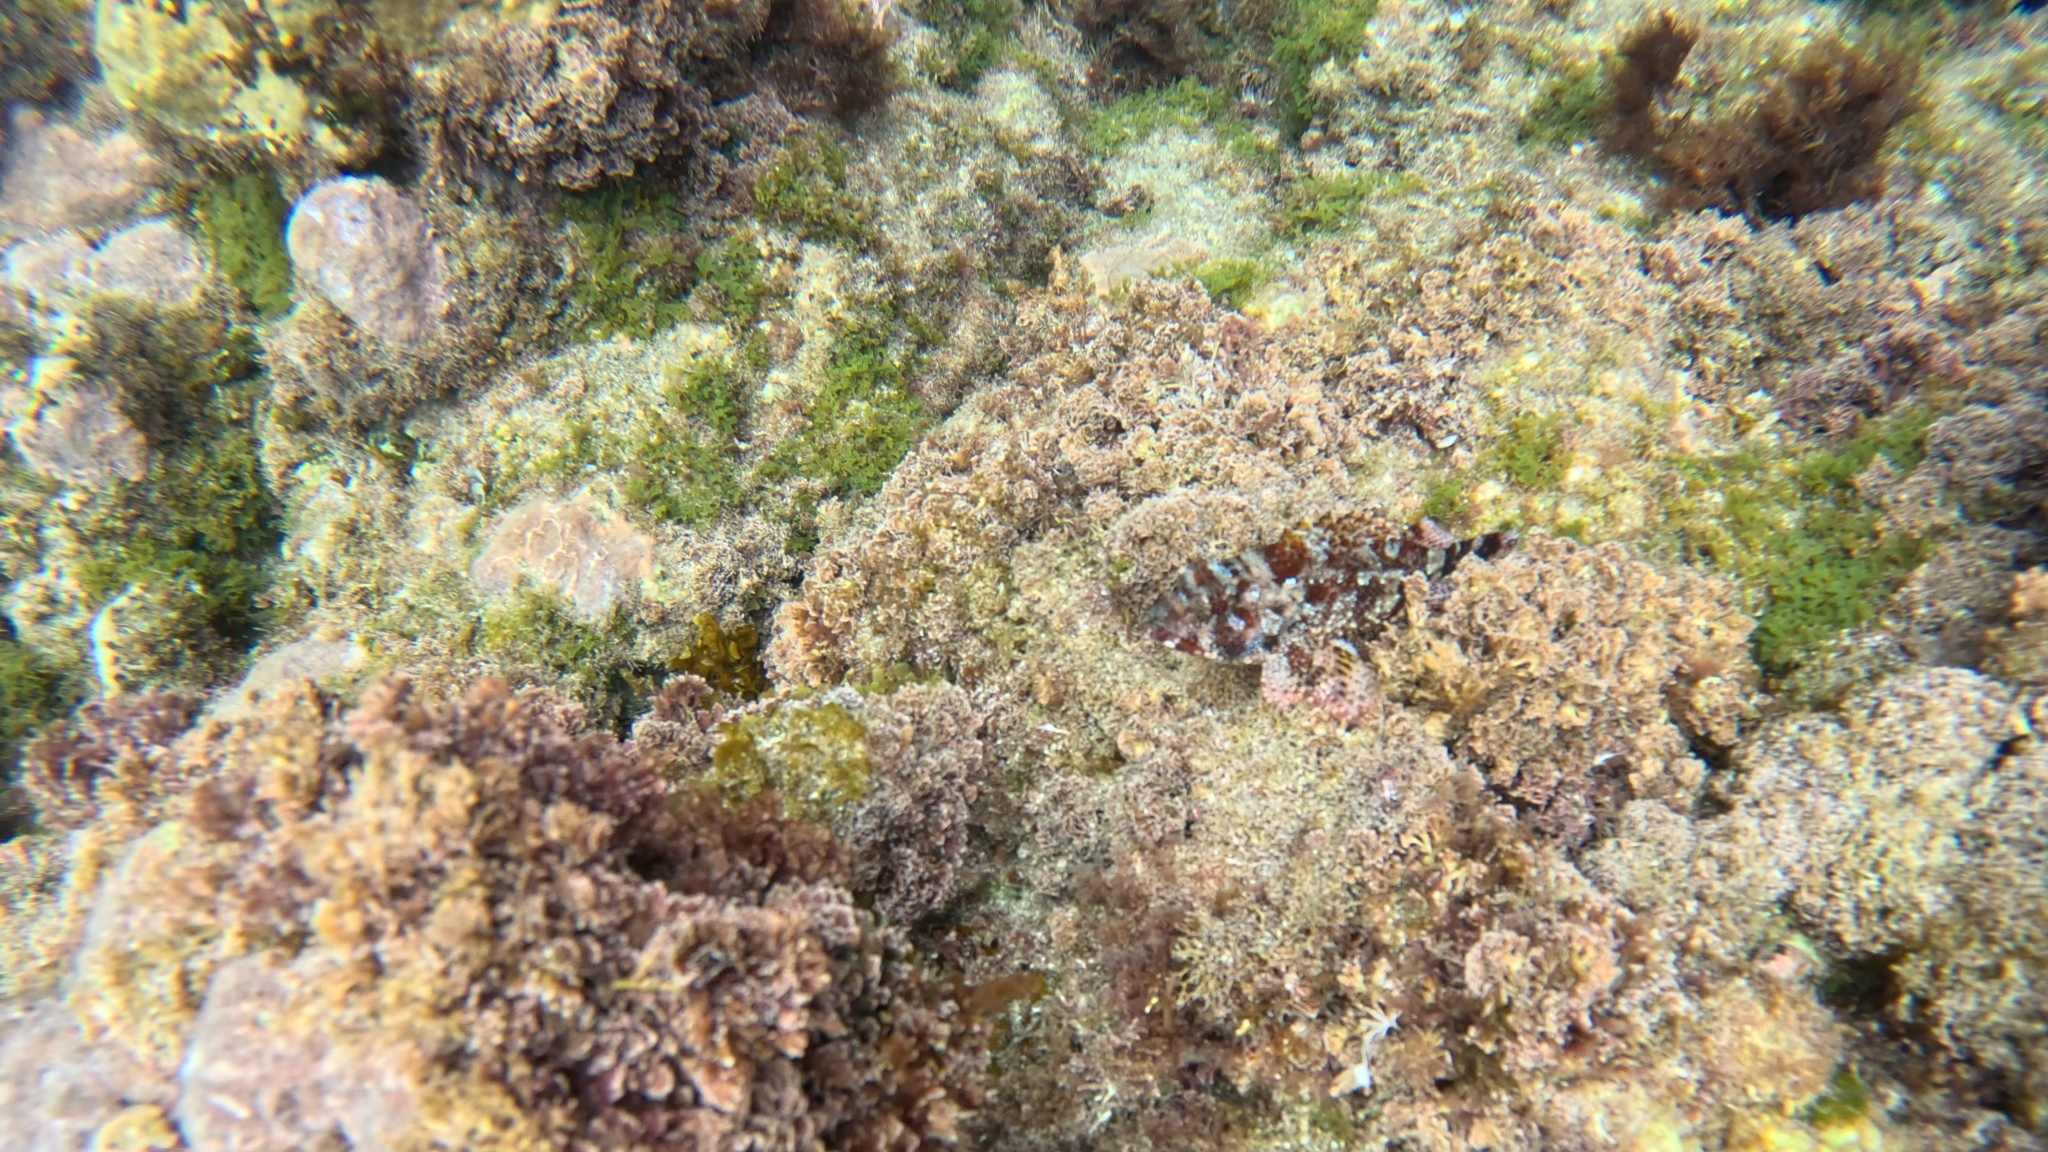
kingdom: Animalia
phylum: Chordata
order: Scorpaeniformes
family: Scorpaenidae
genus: Scorpaena
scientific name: Scorpaena maderensis
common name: Madeira rockfish
